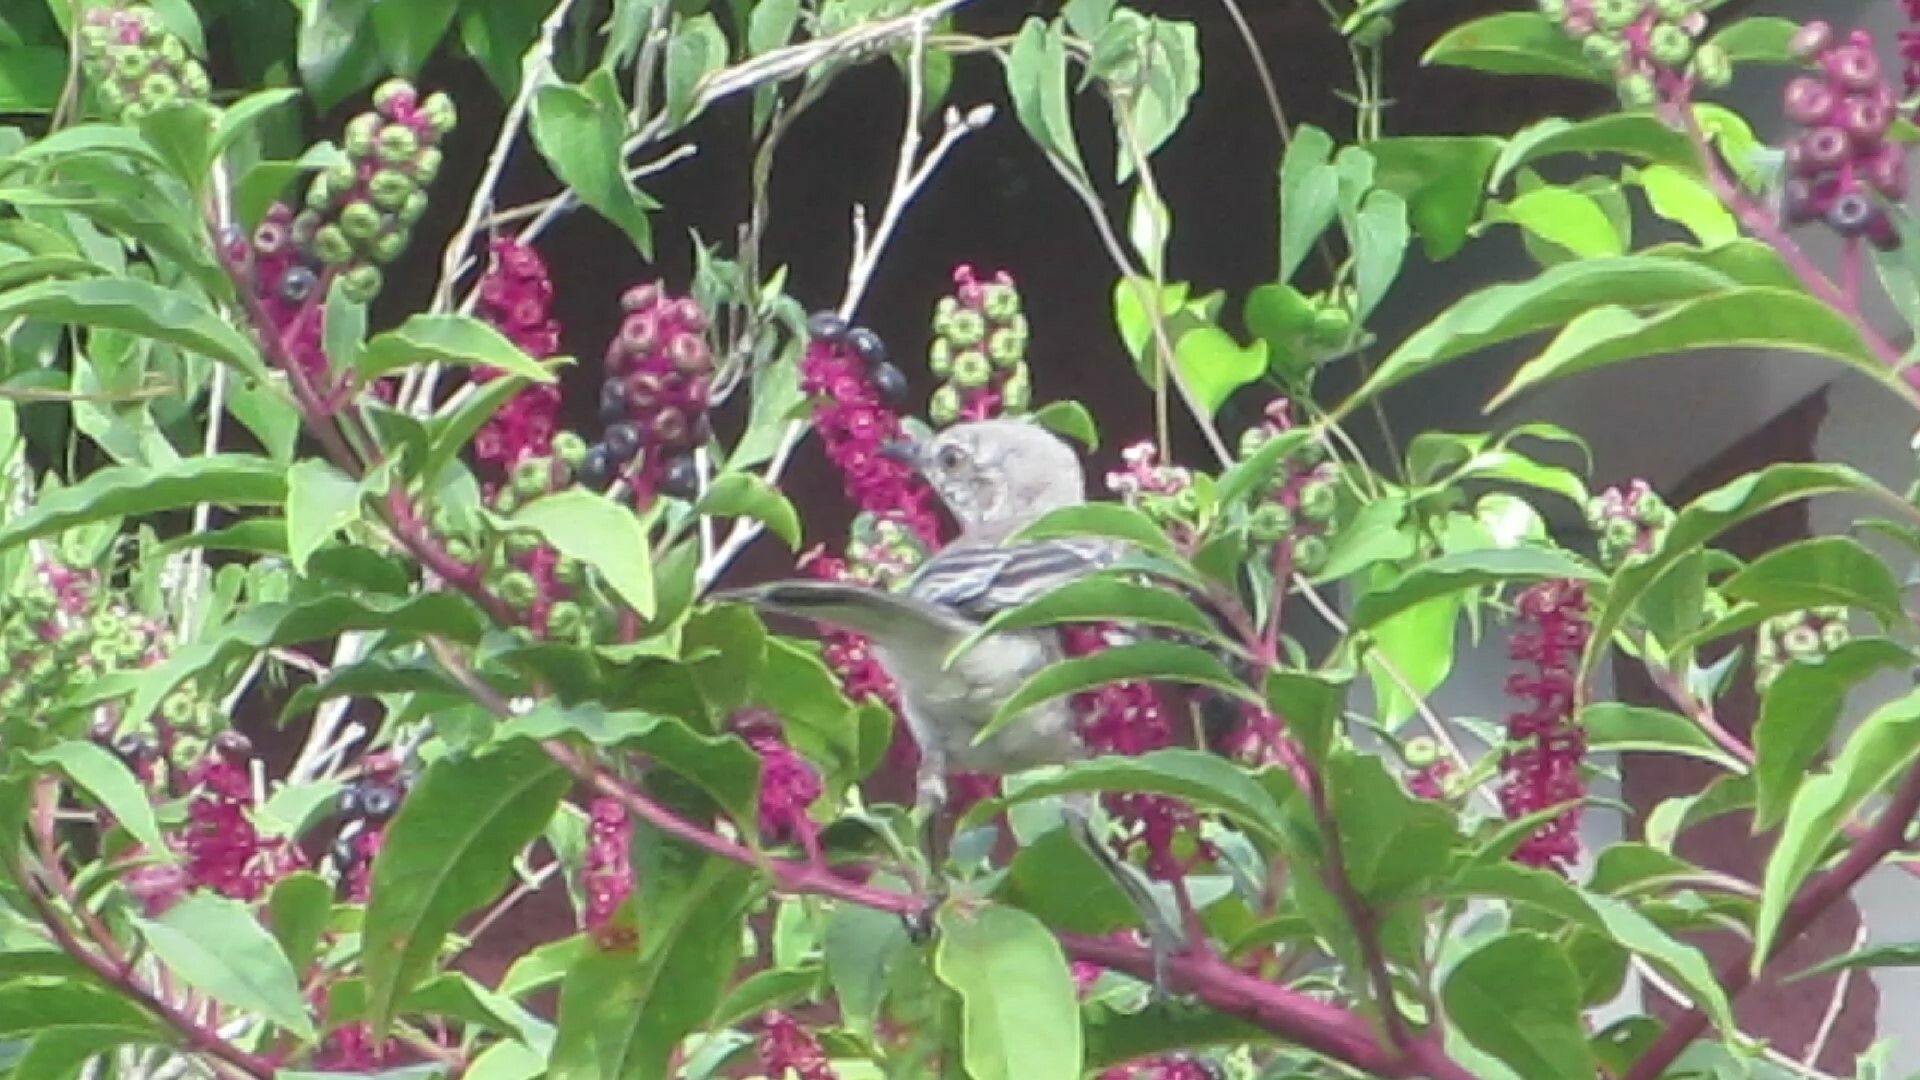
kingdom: Animalia
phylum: Chordata
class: Aves
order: Passeriformes
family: Mimidae
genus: Mimus
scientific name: Mimus polyglottos
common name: Northern mockingbird
